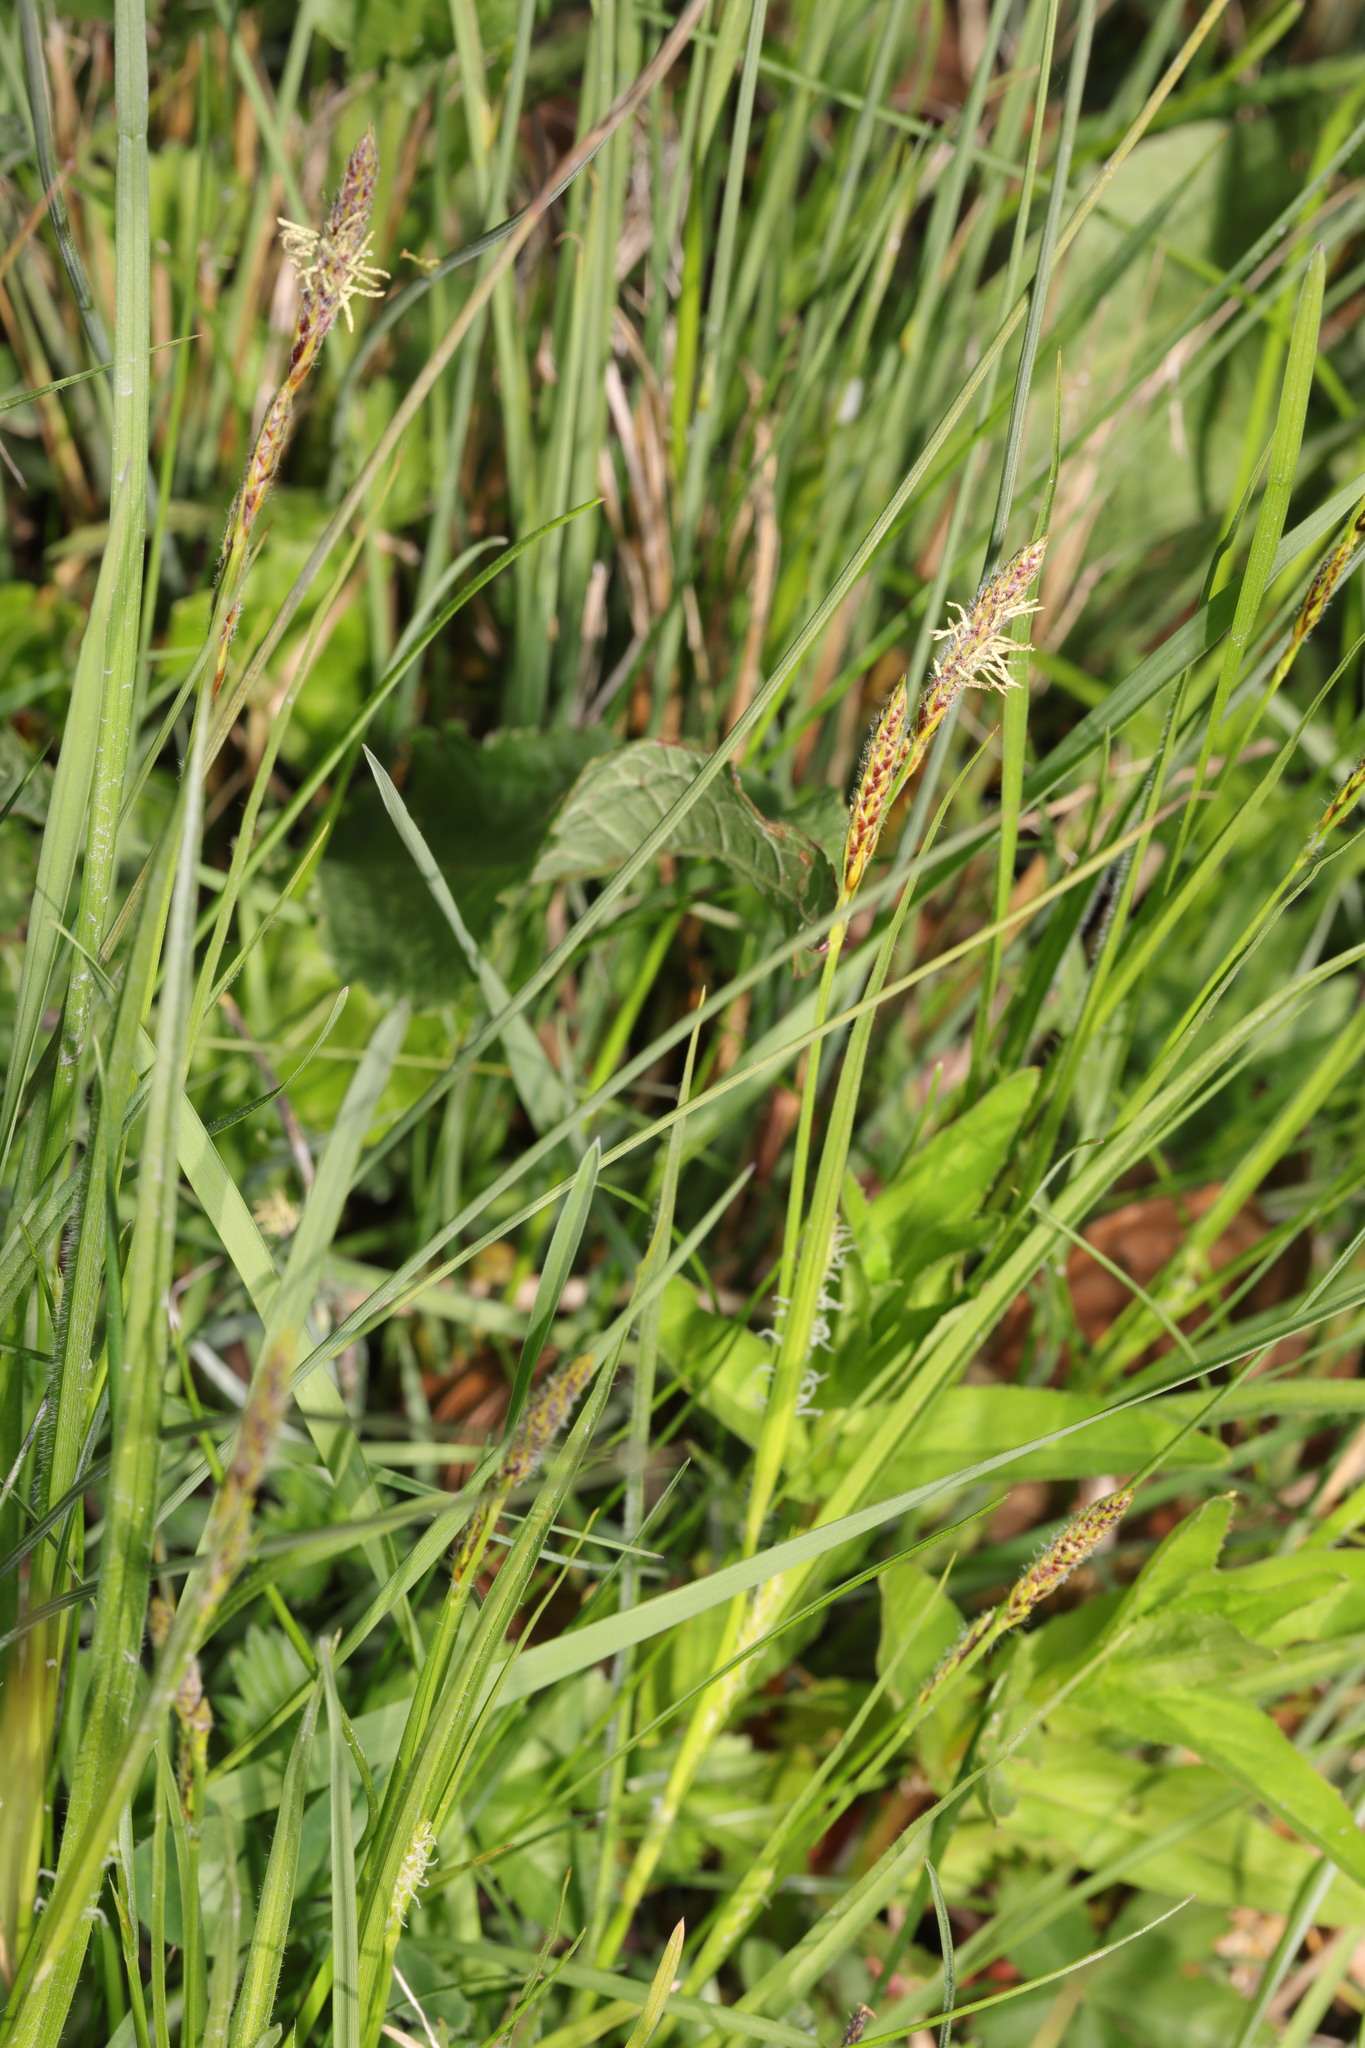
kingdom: Plantae
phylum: Tracheophyta
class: Liliopsida
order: Poales
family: Cyperaceae
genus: Carex
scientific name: Carex hirta
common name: Hairy sedge
